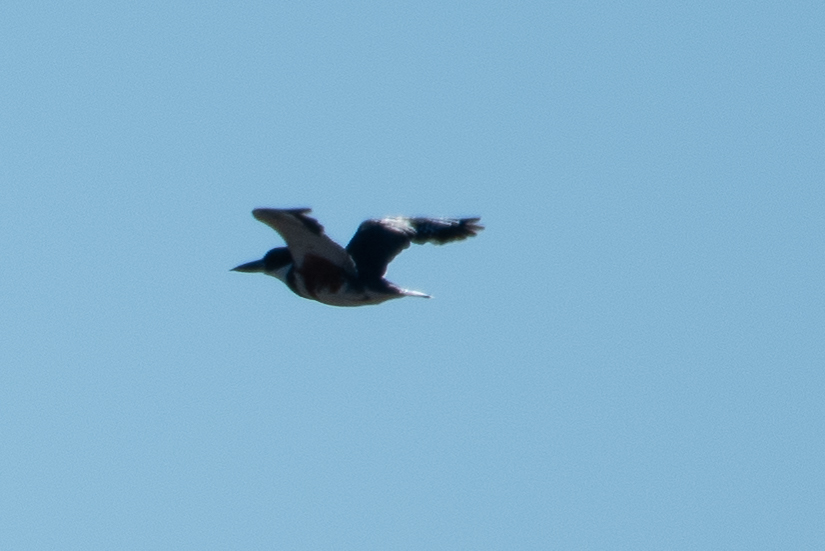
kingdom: Animalia
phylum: Chordata
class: Aves
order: Coraciiformes
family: Alcedinidae
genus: Megaceryle
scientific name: Megaceryle alcyon
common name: Belted kingfisher
